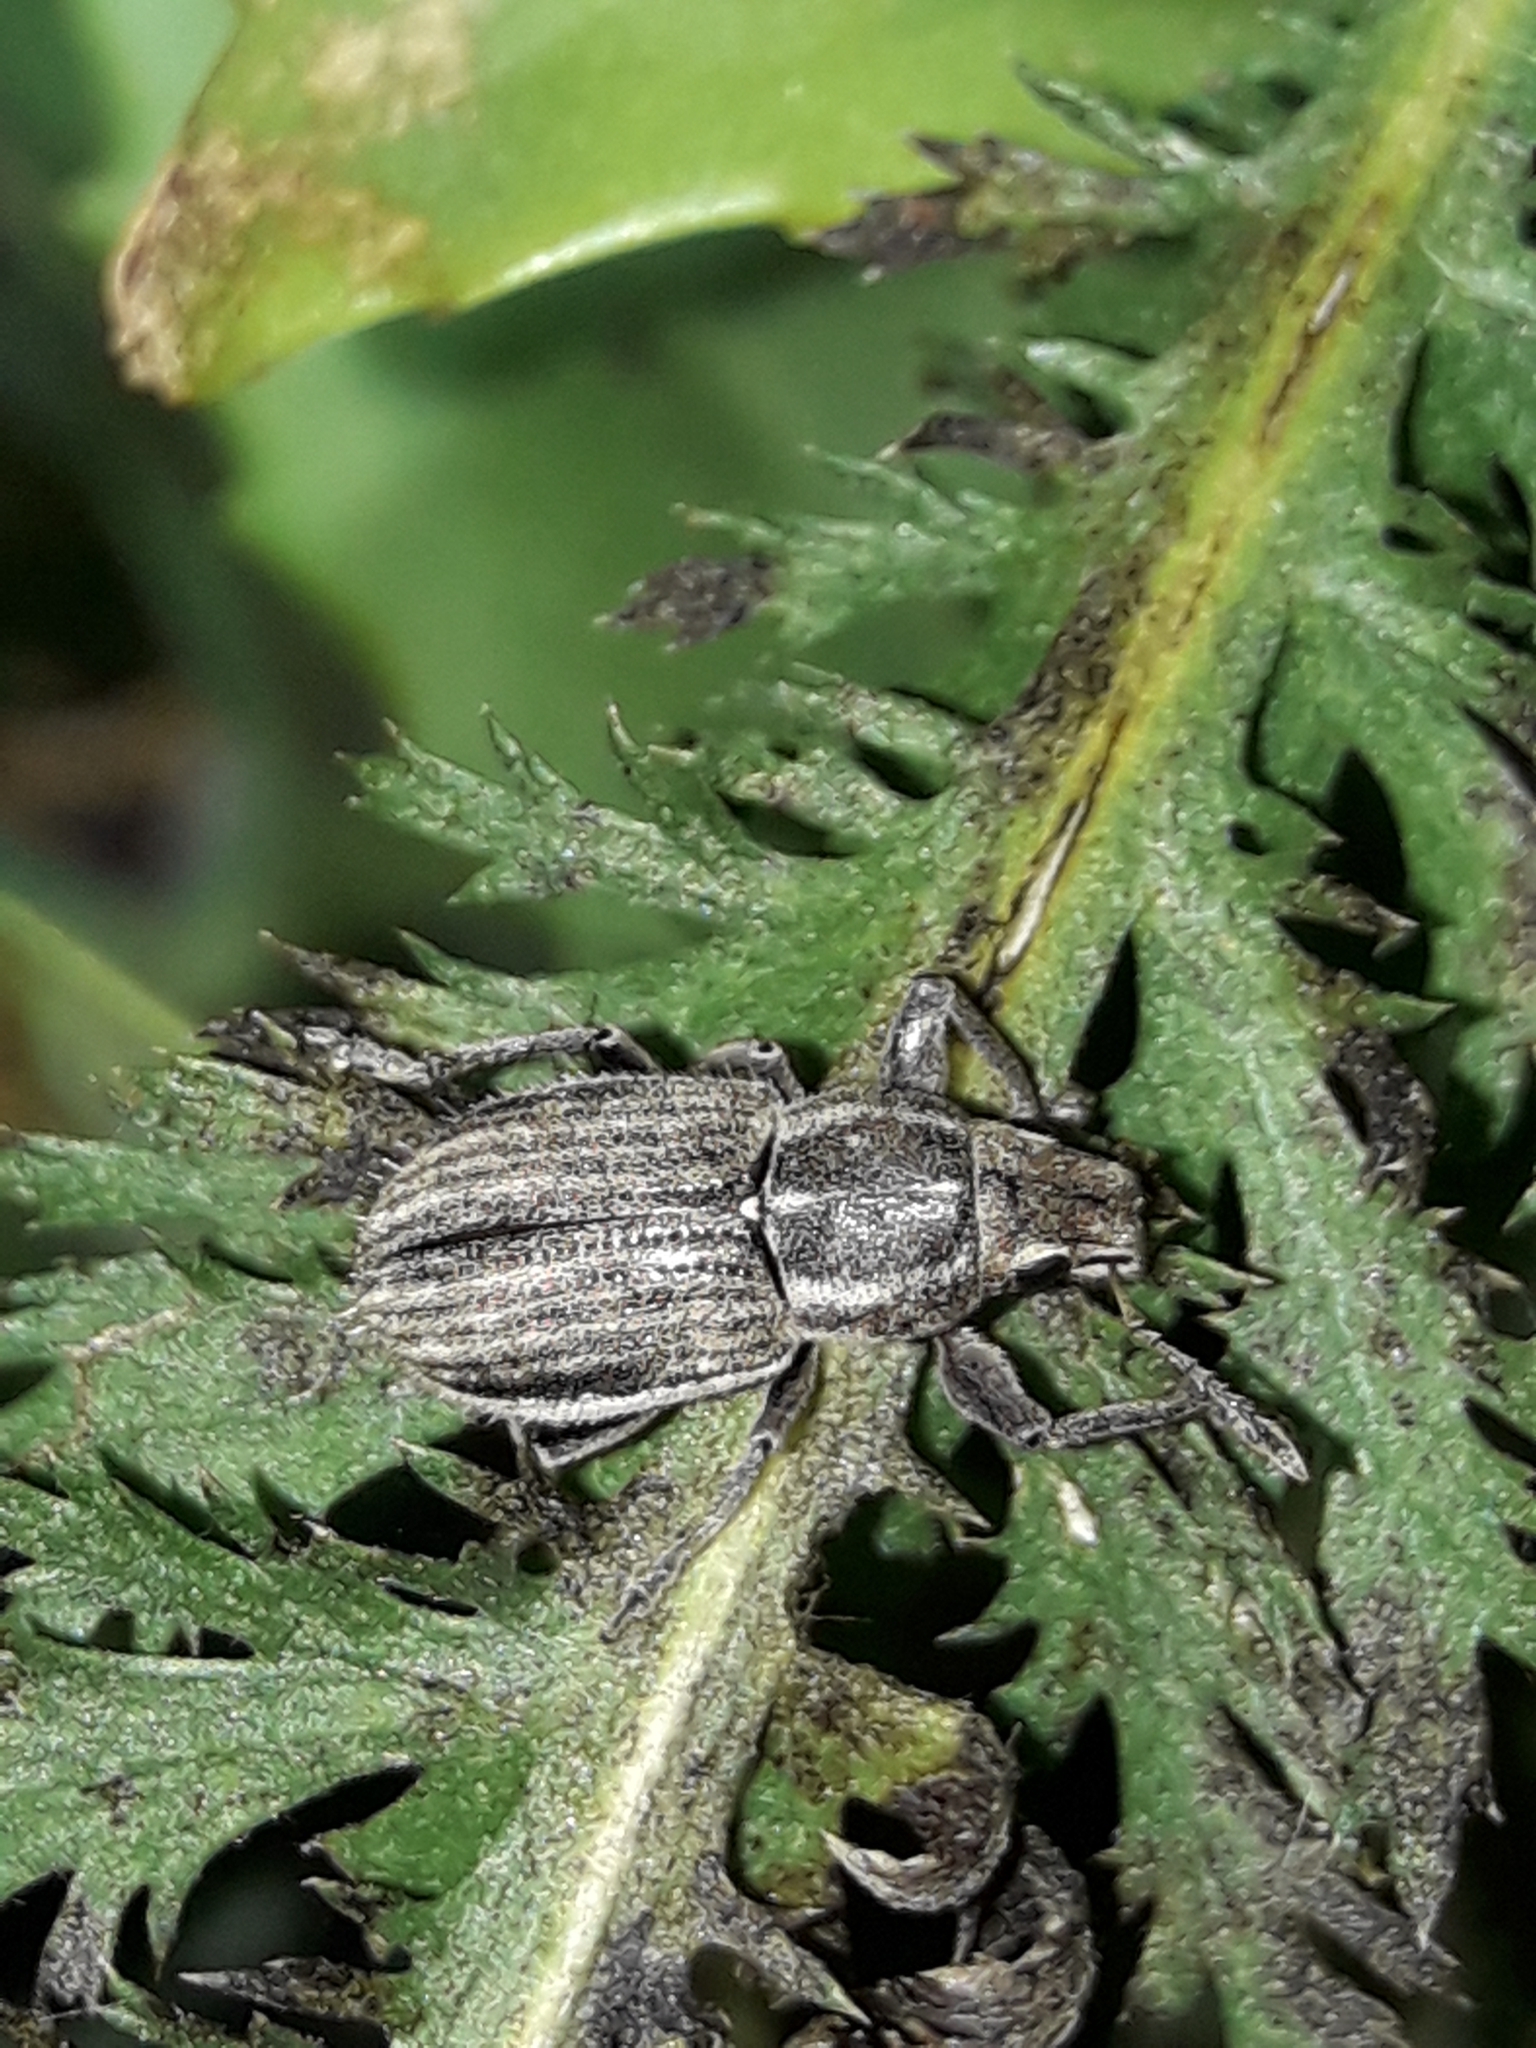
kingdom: Animalia
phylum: Arthropoda
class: Insecta
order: Coleoptera
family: Curculionidae
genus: Naupactus
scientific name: Naupactus leucoloma
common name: Whitefringed beetle
